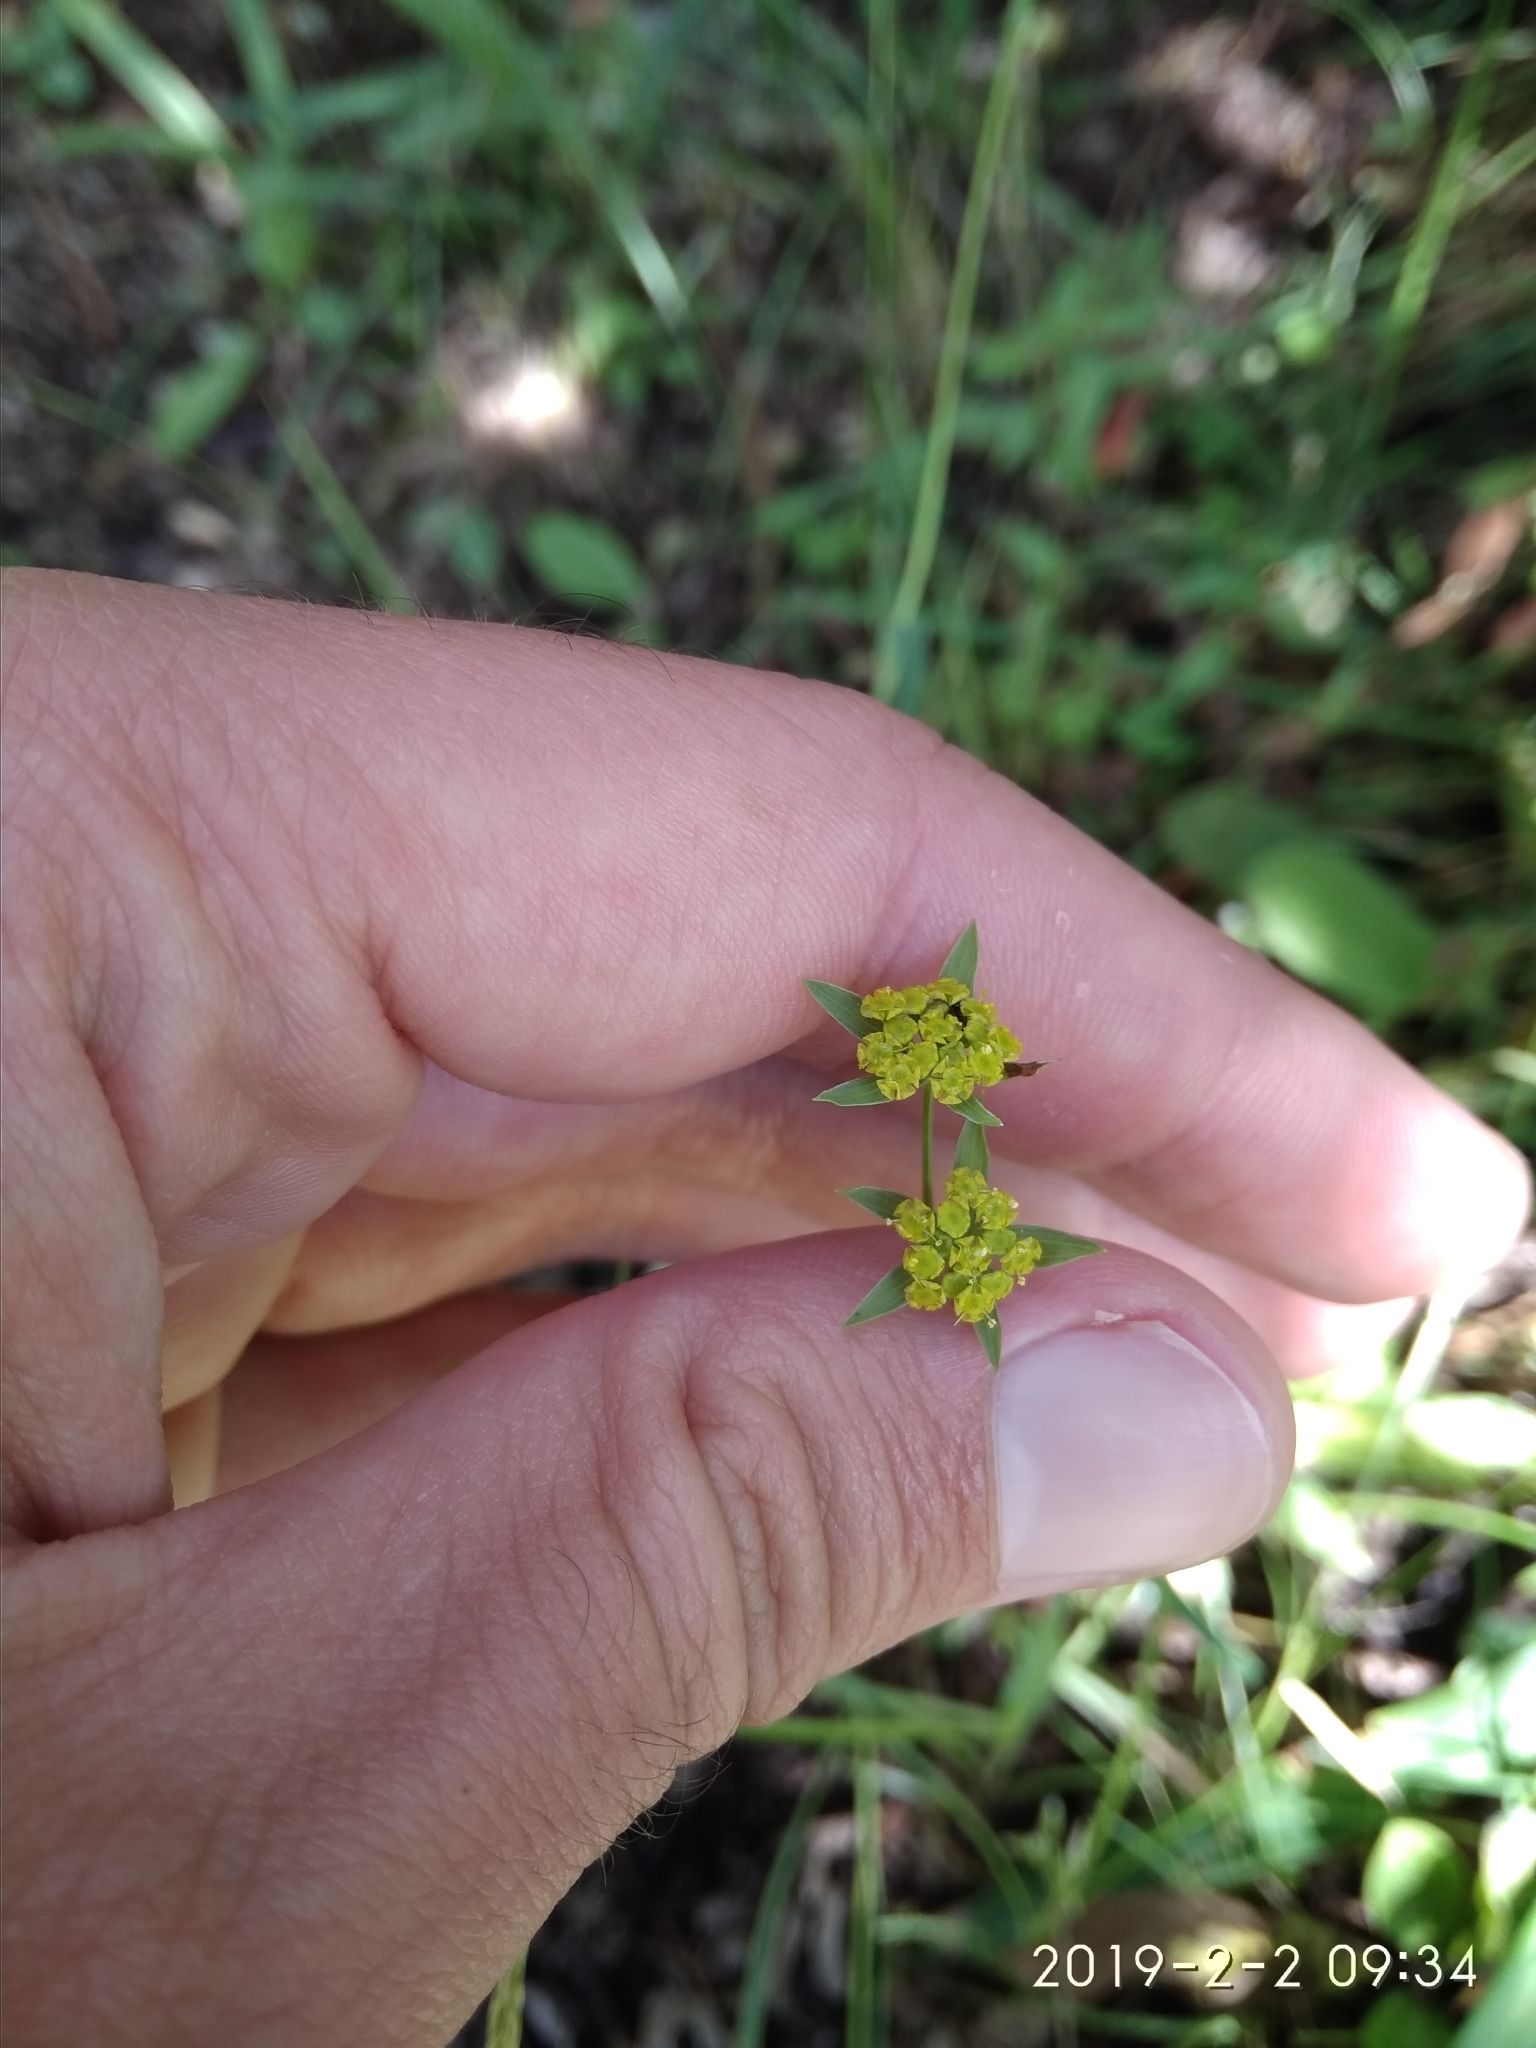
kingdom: Plantae
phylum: Tracheophyta
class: Magnoliopsida
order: Apiales
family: Apiaceae
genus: Bupleurum
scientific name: Bupleurum mundii
